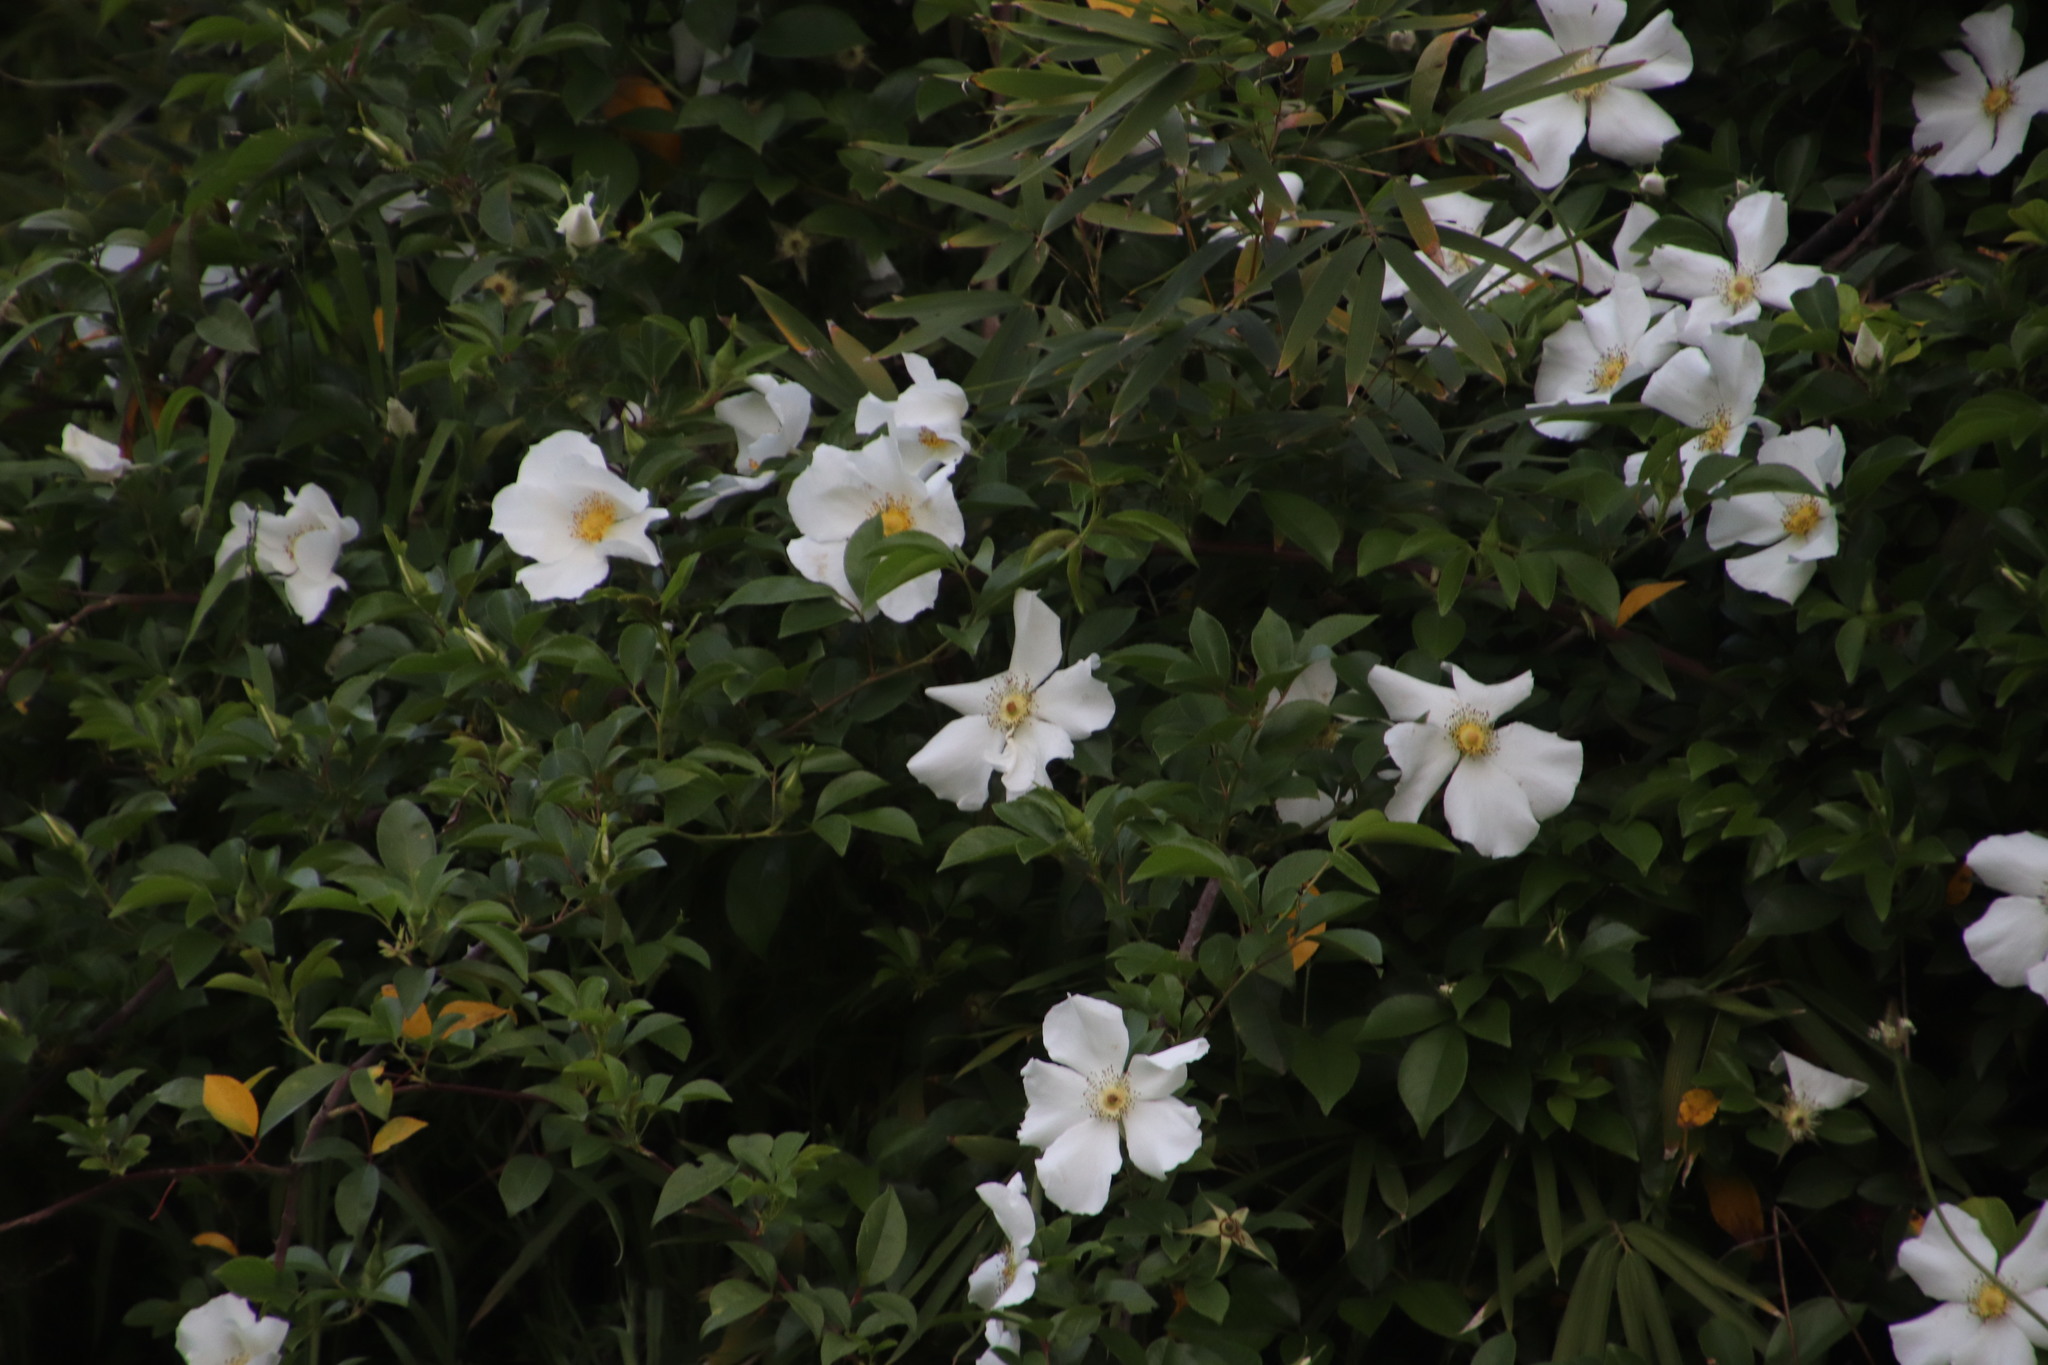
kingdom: Plantae
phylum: Tracheophyta
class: Magnoliopsida
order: Rosales
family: Rosaceae
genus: Rosa
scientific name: Rosa laevigata
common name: Cherokee rose
